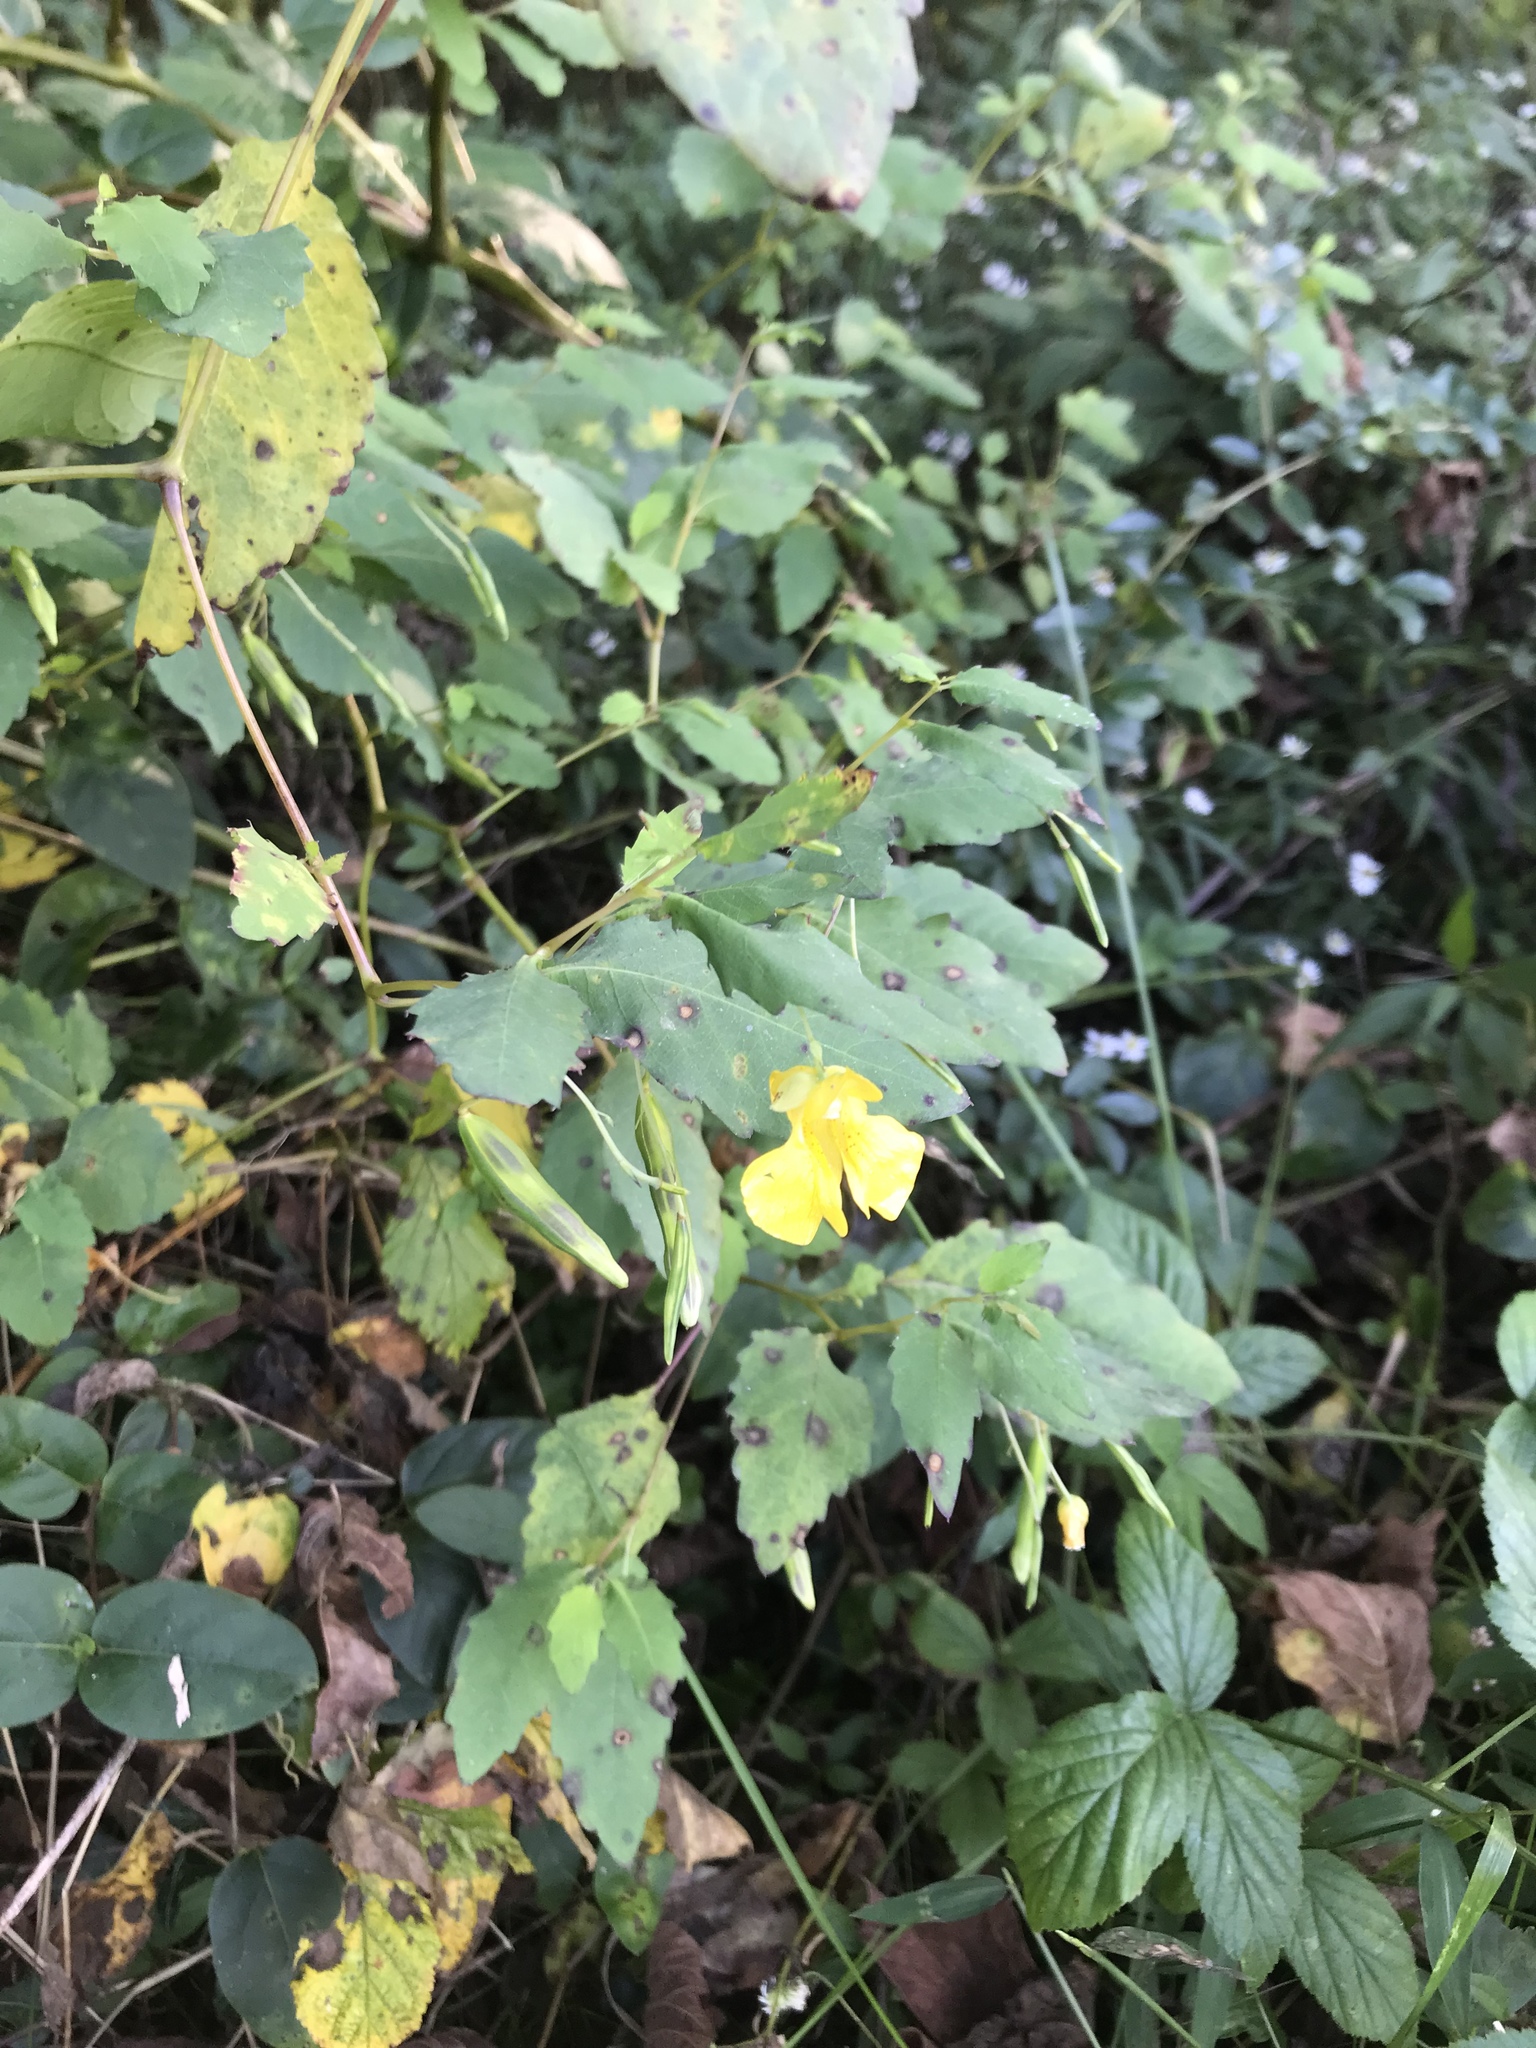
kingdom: Plantae
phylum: Tracheophyta
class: Magnoliopsida
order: Ericales
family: Balsaminaceae
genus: Impatiens
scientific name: Impatiens pallida
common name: Pale snapweed
